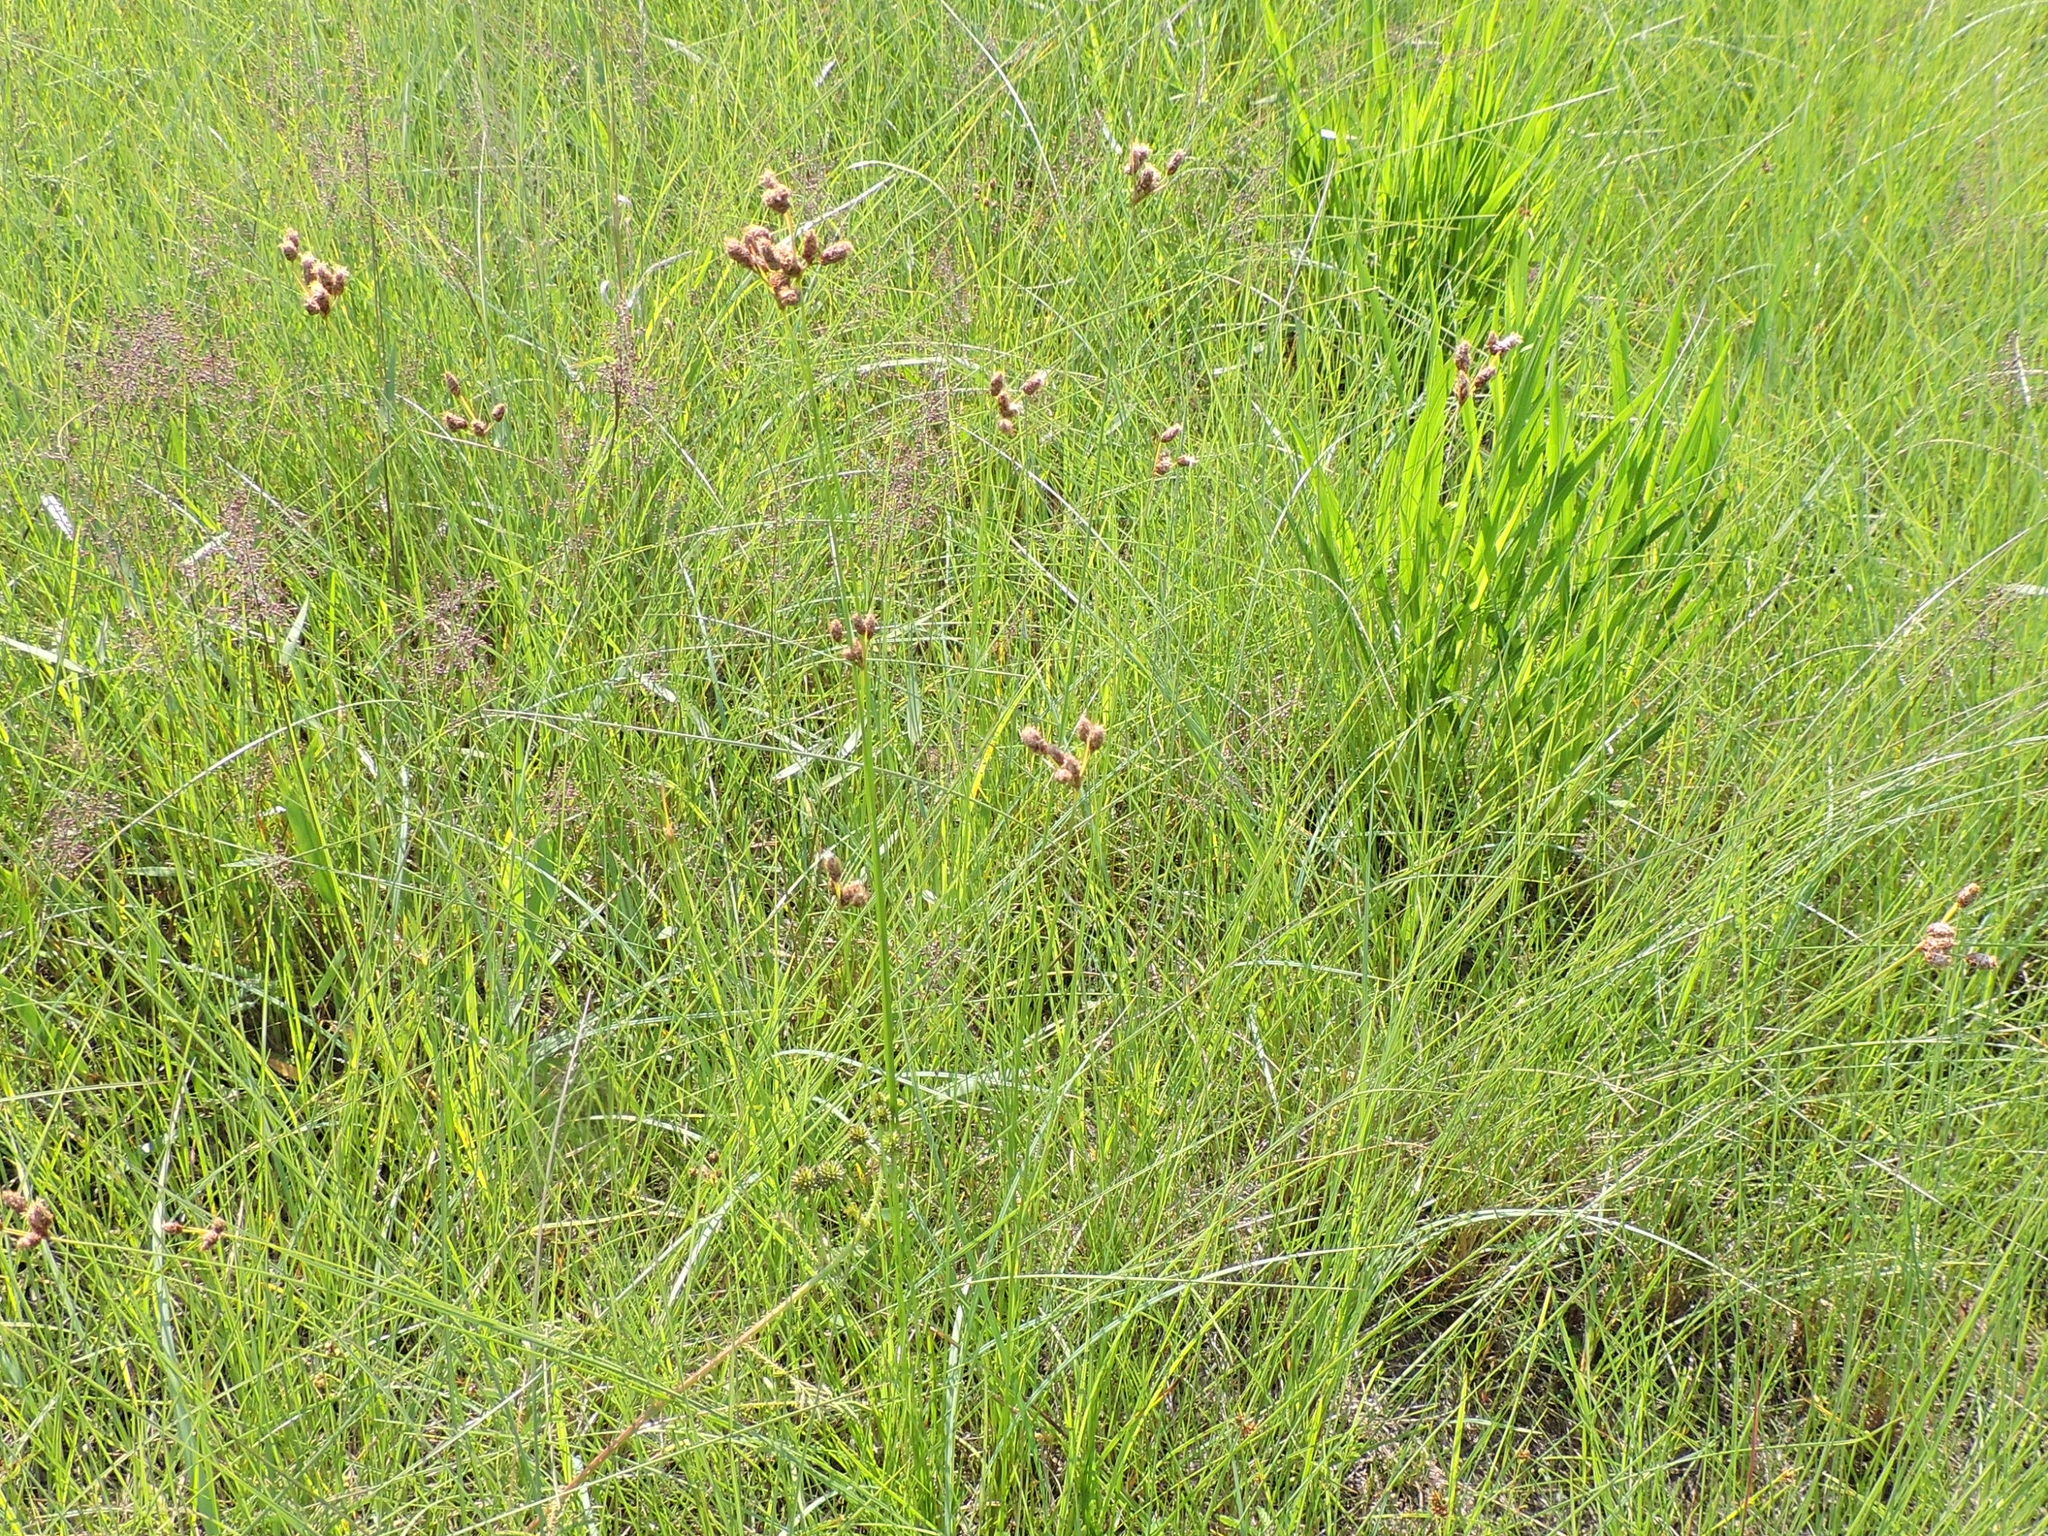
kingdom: Plantae
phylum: Tracheophyta
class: Liliopsida
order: Poales
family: Cyperaceae
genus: Fimbristylis
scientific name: Fimbristylis puberula
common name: Hairy fimbristylis
